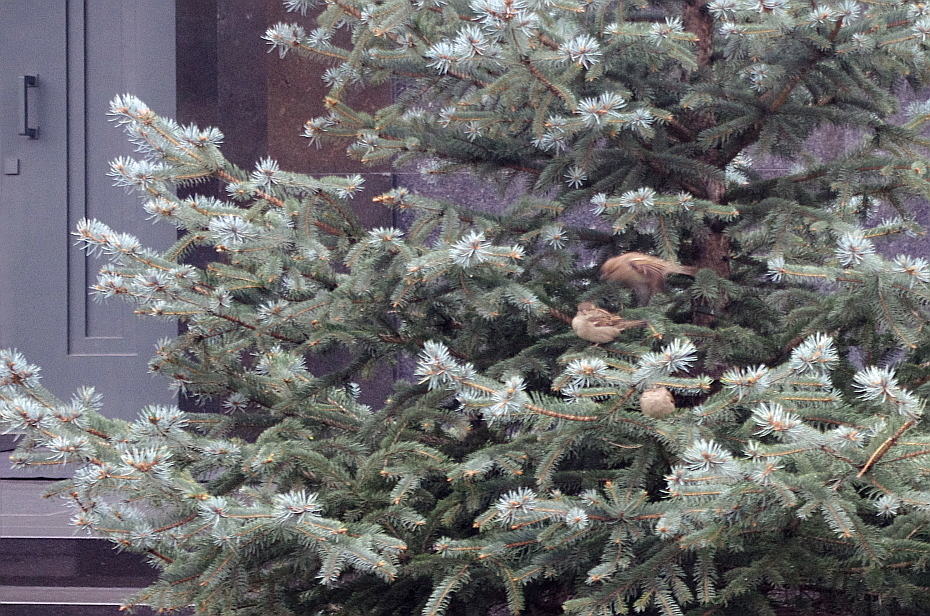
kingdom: Animalia
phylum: Chordata
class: Aves
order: Passeriformes
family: Passeridae
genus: Passer
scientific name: Passer domesticus
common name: House sparrow
